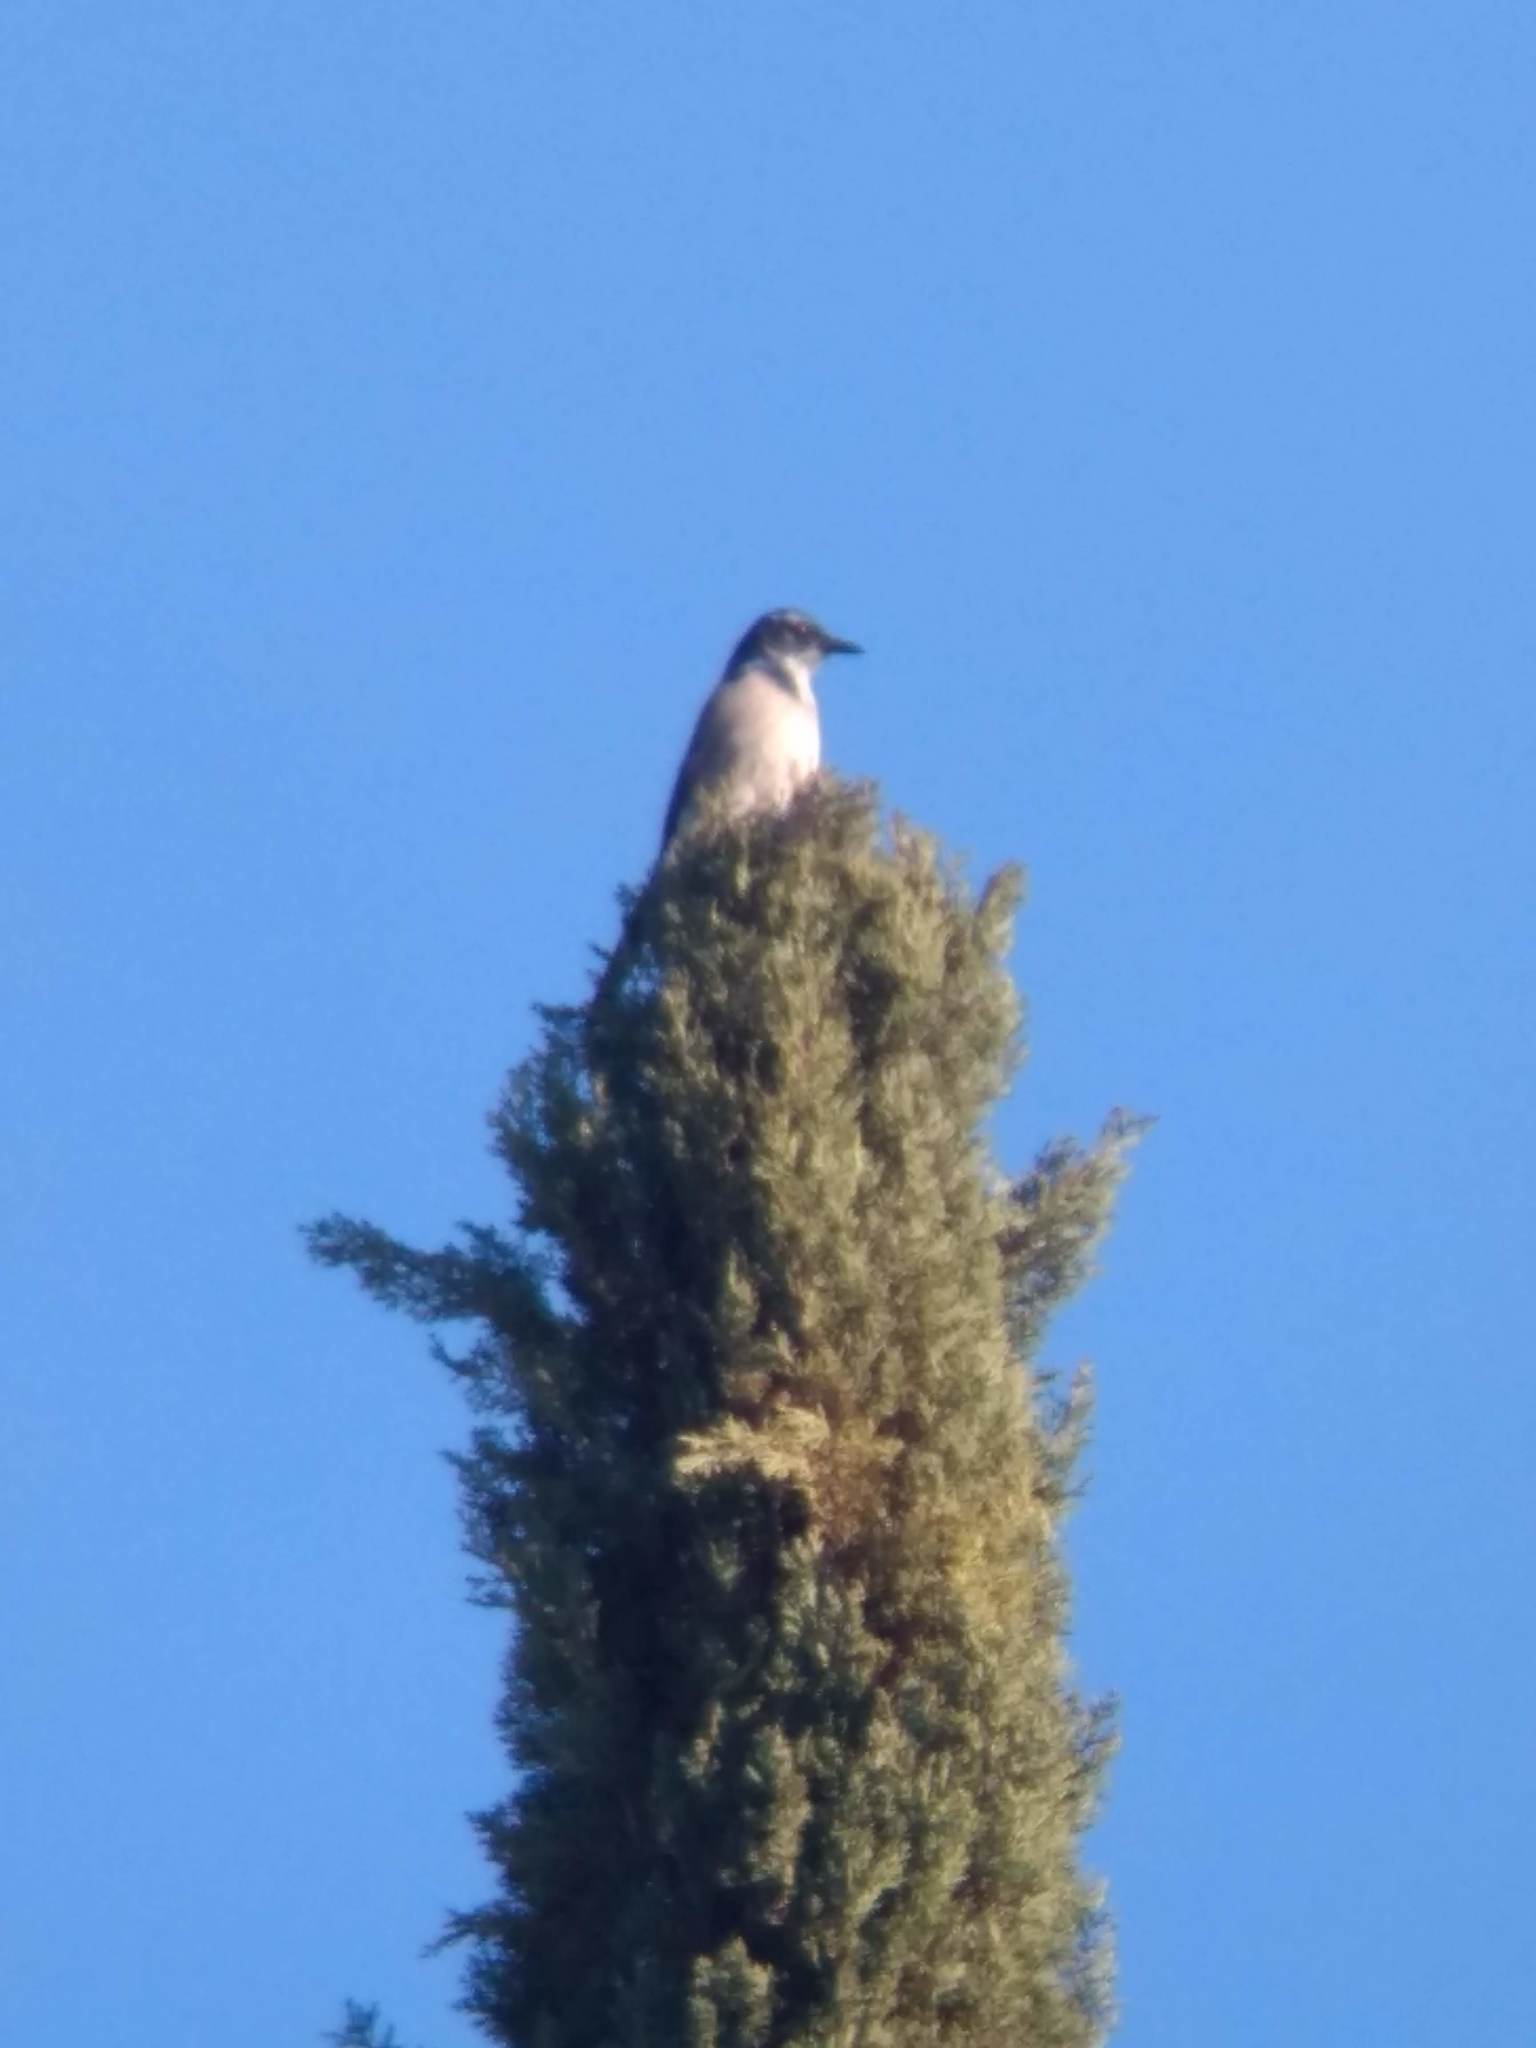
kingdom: Animalia
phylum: Chordata
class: Aves
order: Passeriformes
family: Corvidae
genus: Aphelocoma
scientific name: Aphelocoma californica
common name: California scrub-jay
